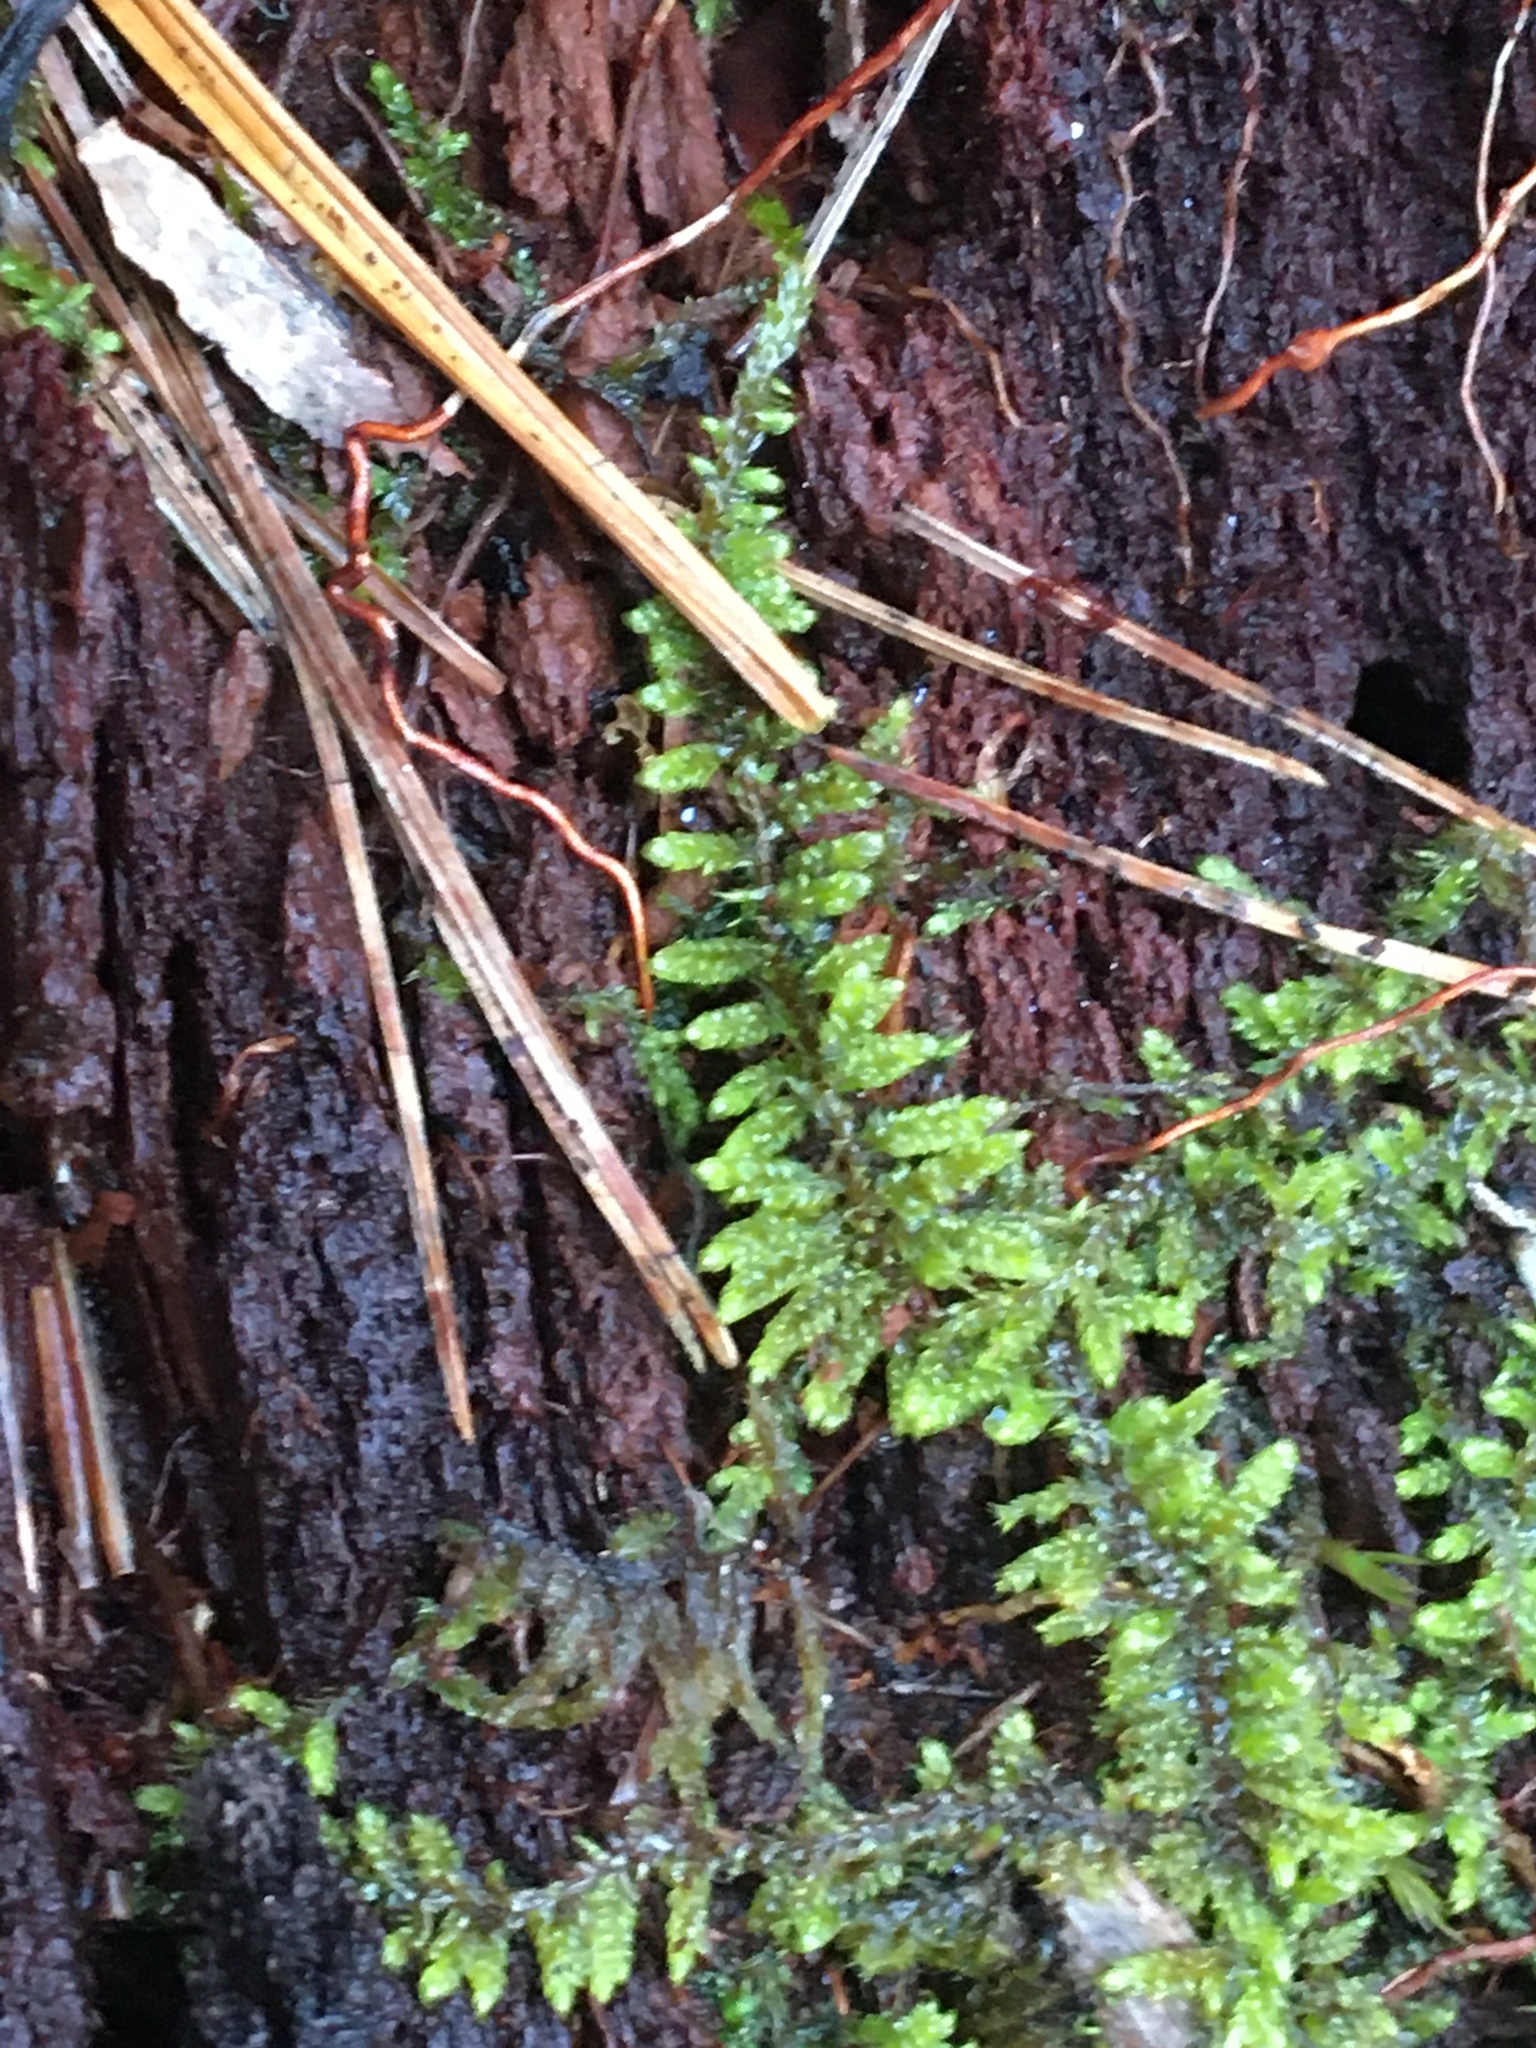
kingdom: Plantae
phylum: Bryophyta
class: Bryopsida
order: Hypnales
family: Callicladiaceae
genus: Callicladium
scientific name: Callicladium imponens
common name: Brocade moss
